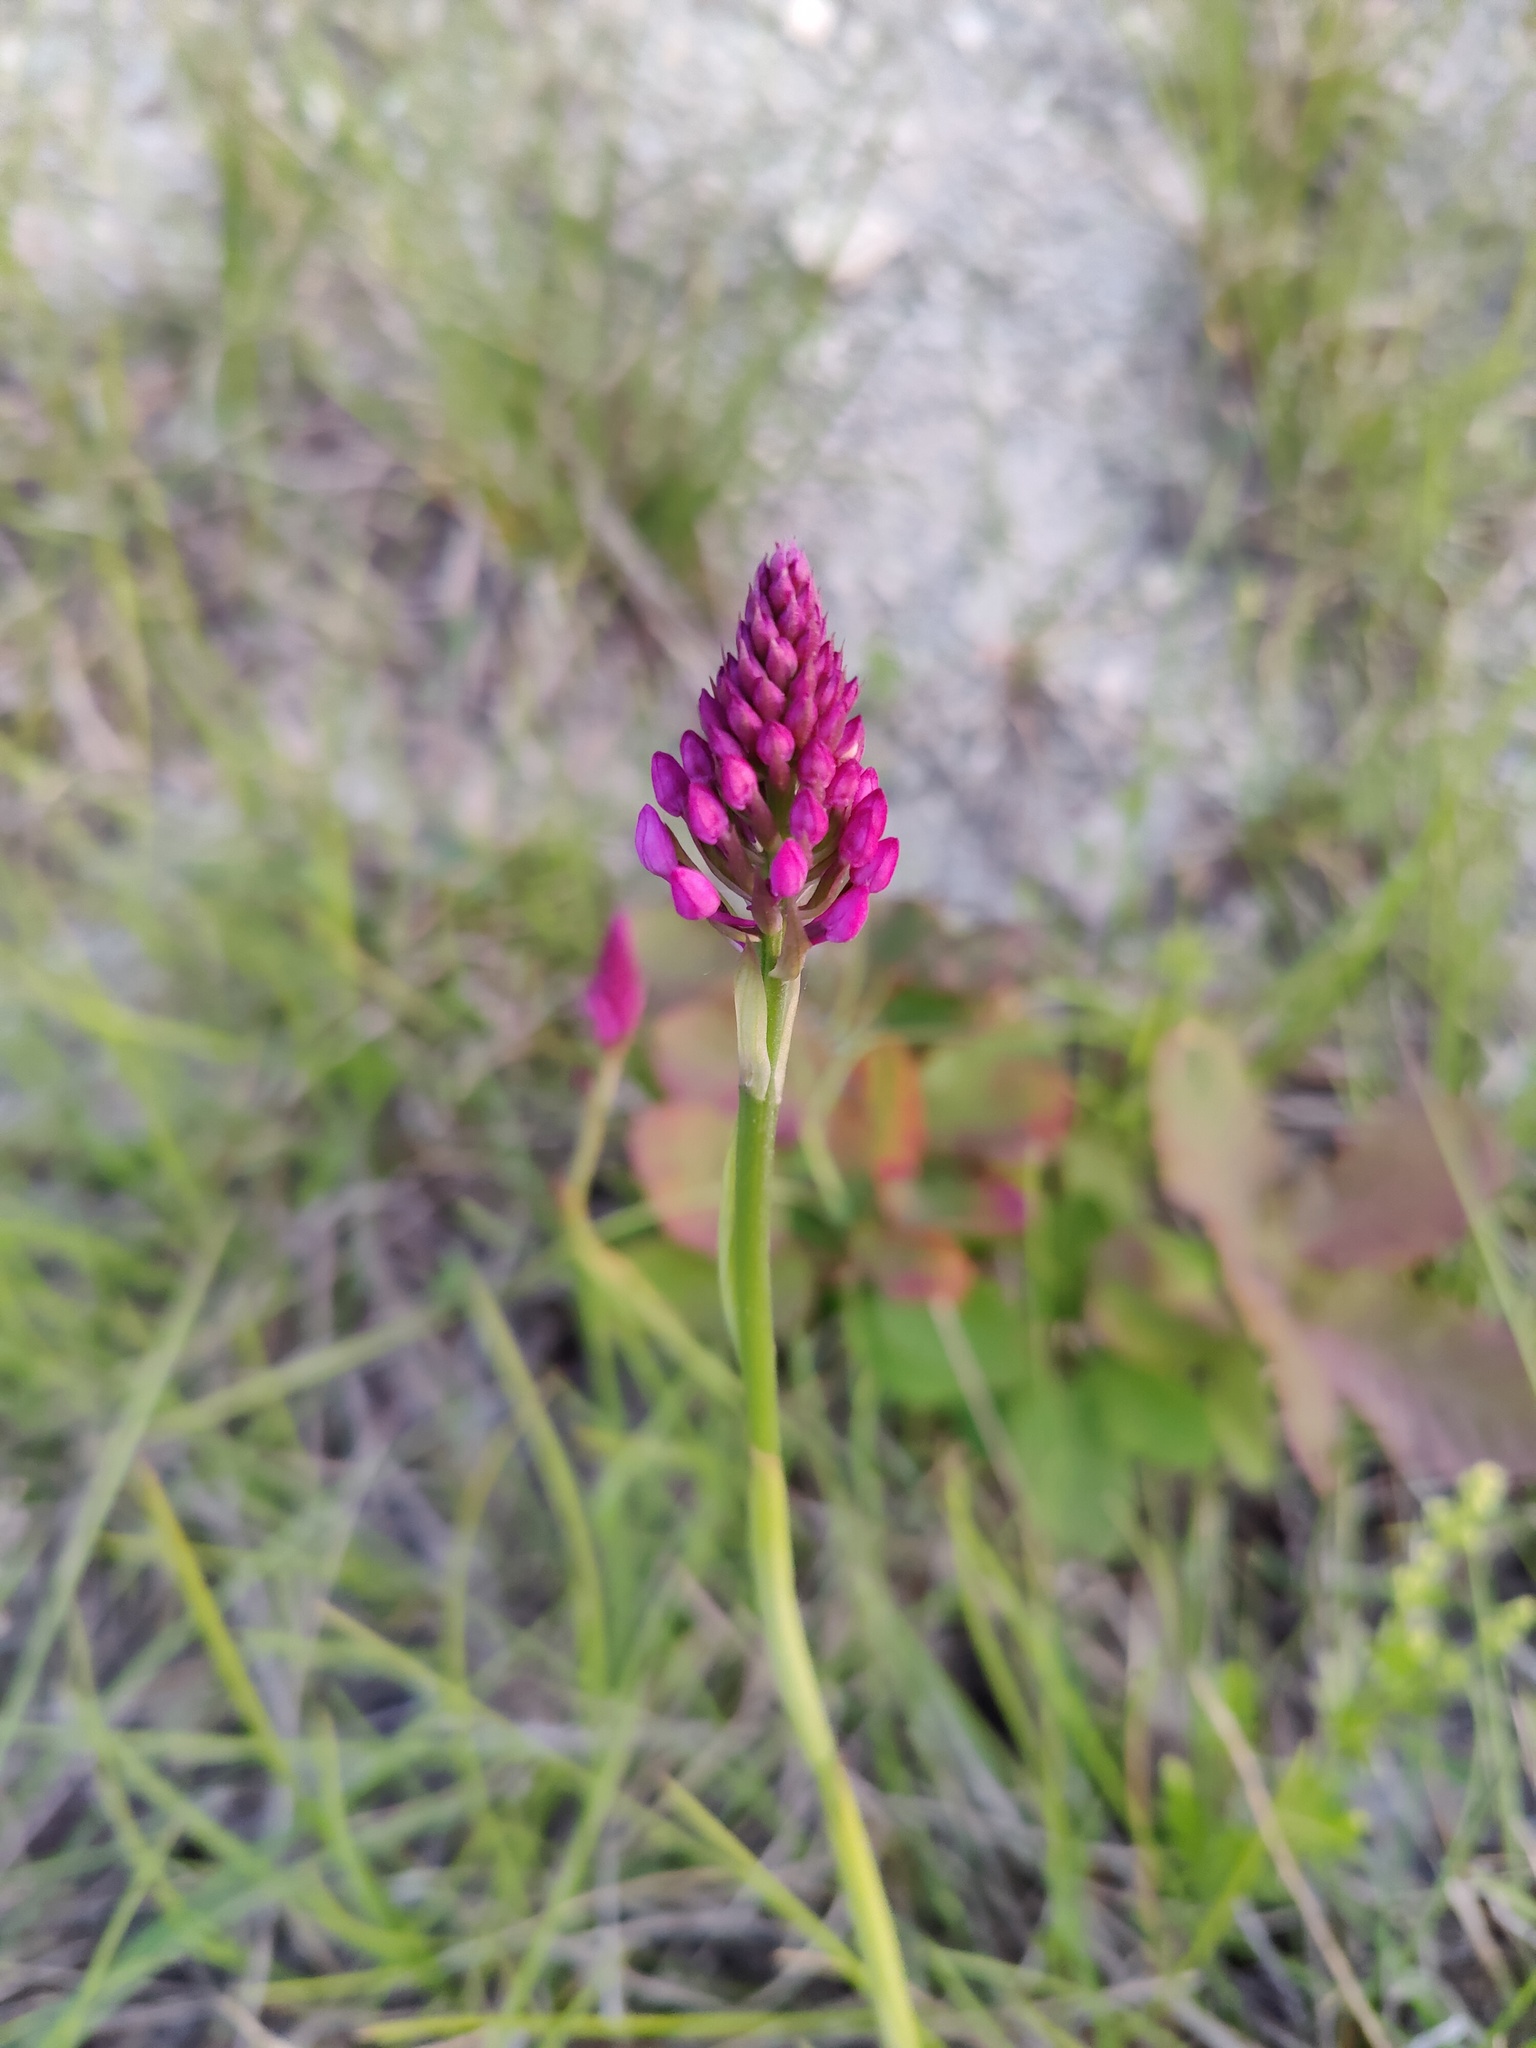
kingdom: Plantae
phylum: Tracheophyta
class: Liliopsida
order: Asparagales
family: Orchidaceae
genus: Anacamptis
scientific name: Anacamptis pyramidalis
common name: Pyramidal orchid
